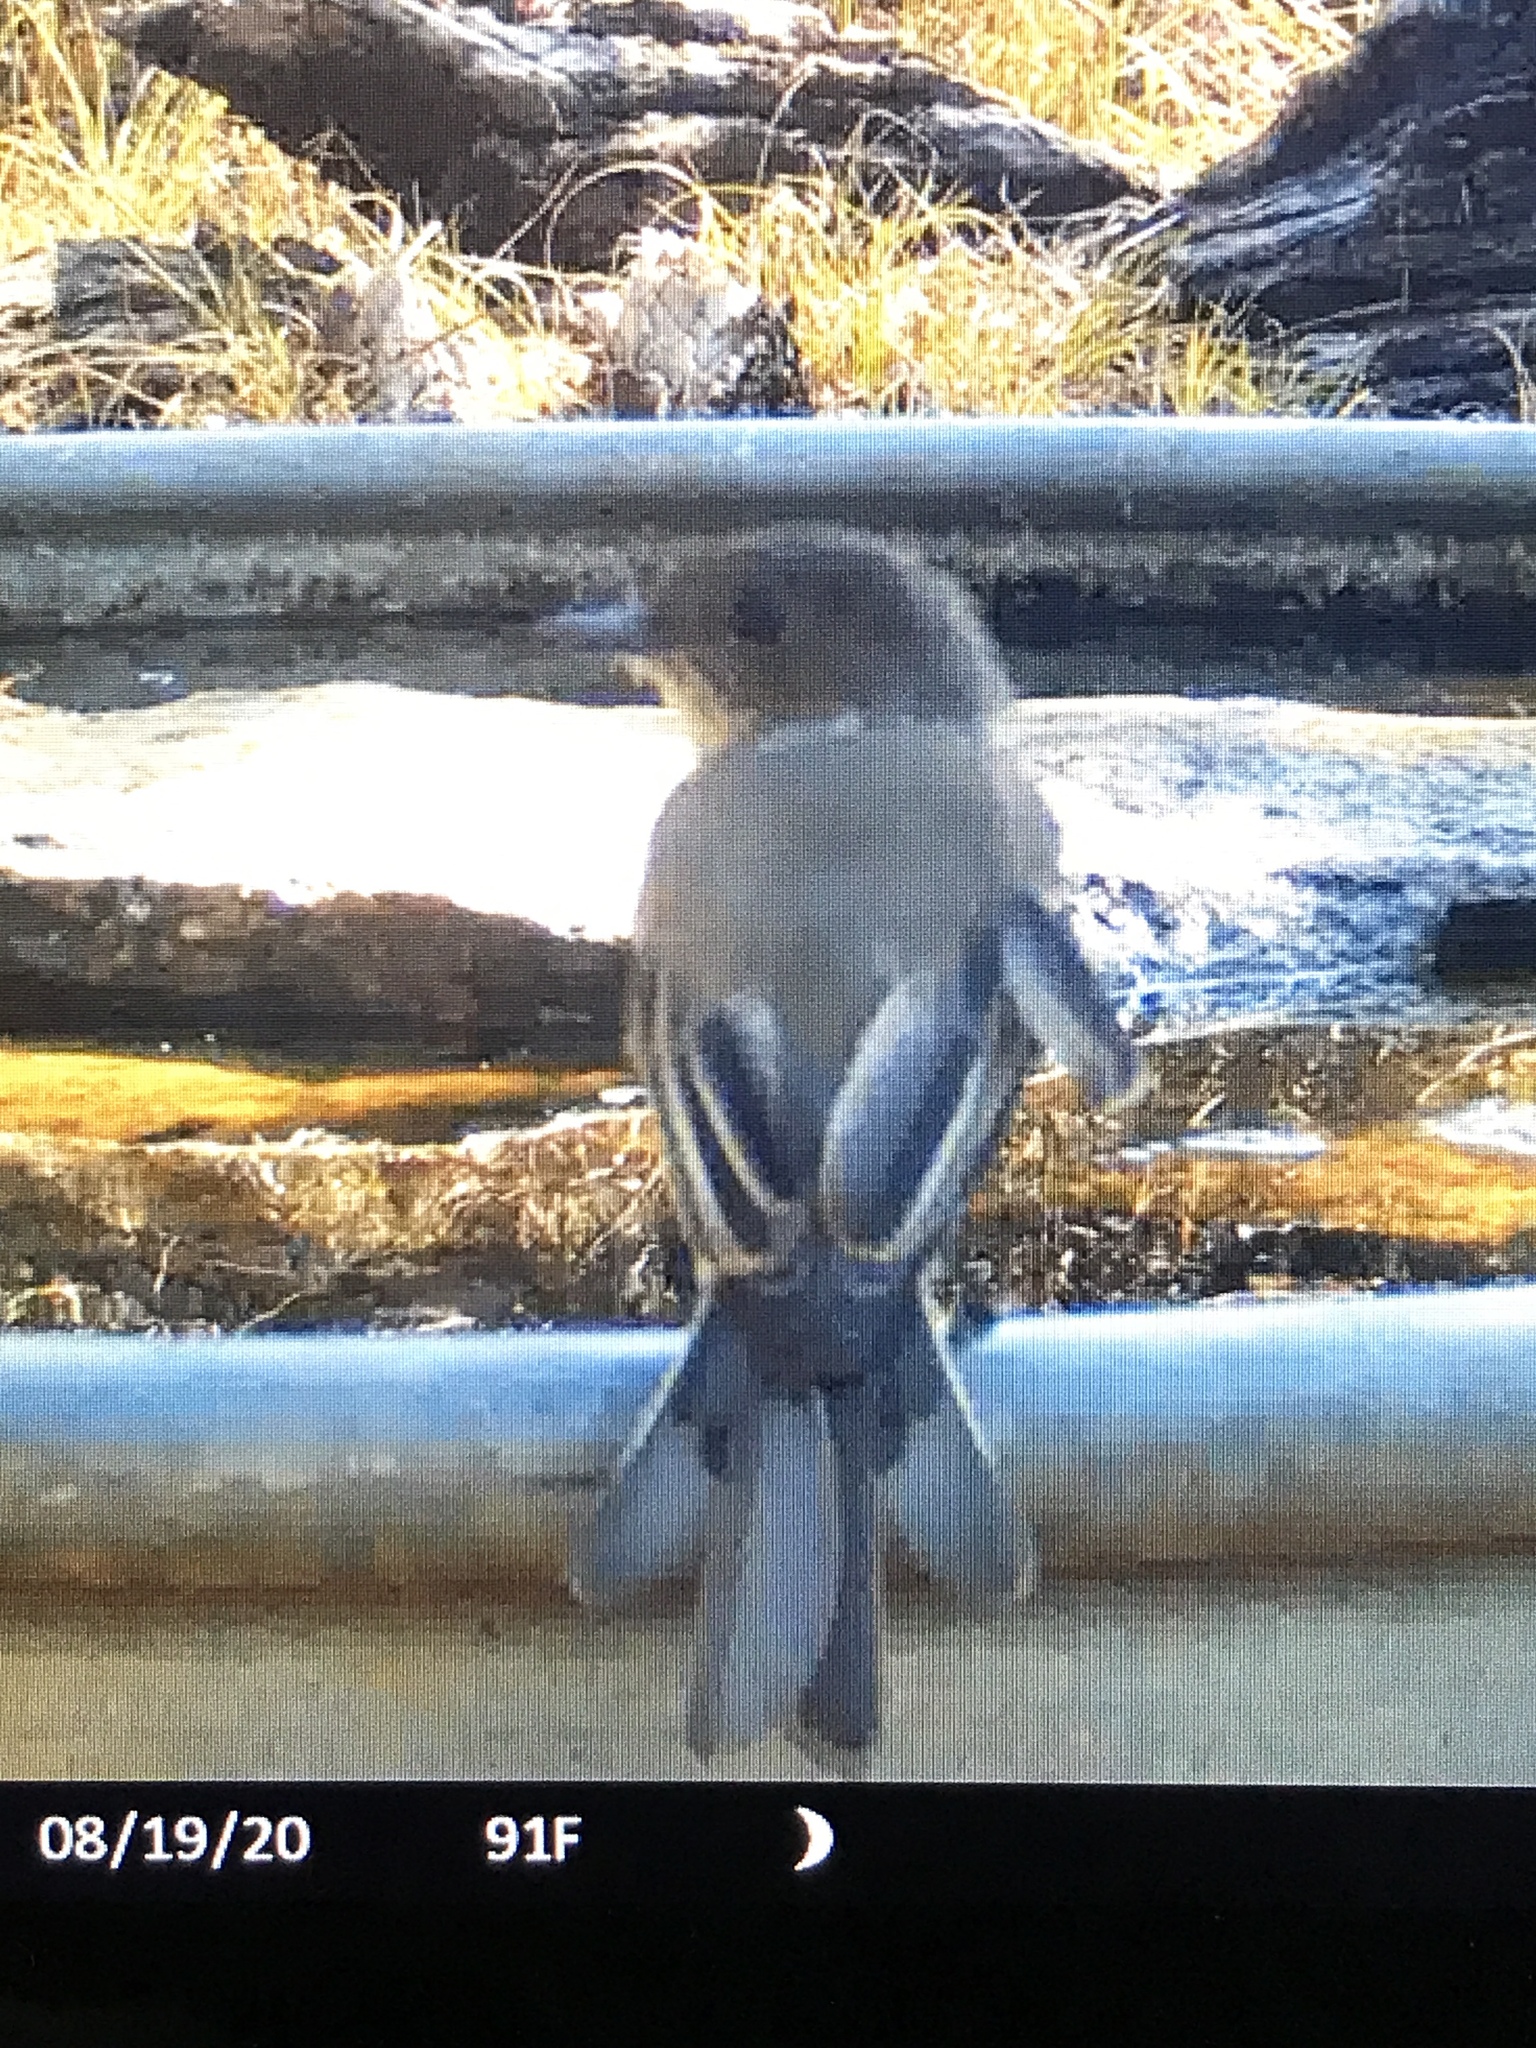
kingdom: Animalia
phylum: Chordata
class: Aves
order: Passeriformes
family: Tyrannidae
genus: Sayornis
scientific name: Sayornis phoebe
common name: Eastern phoebe
